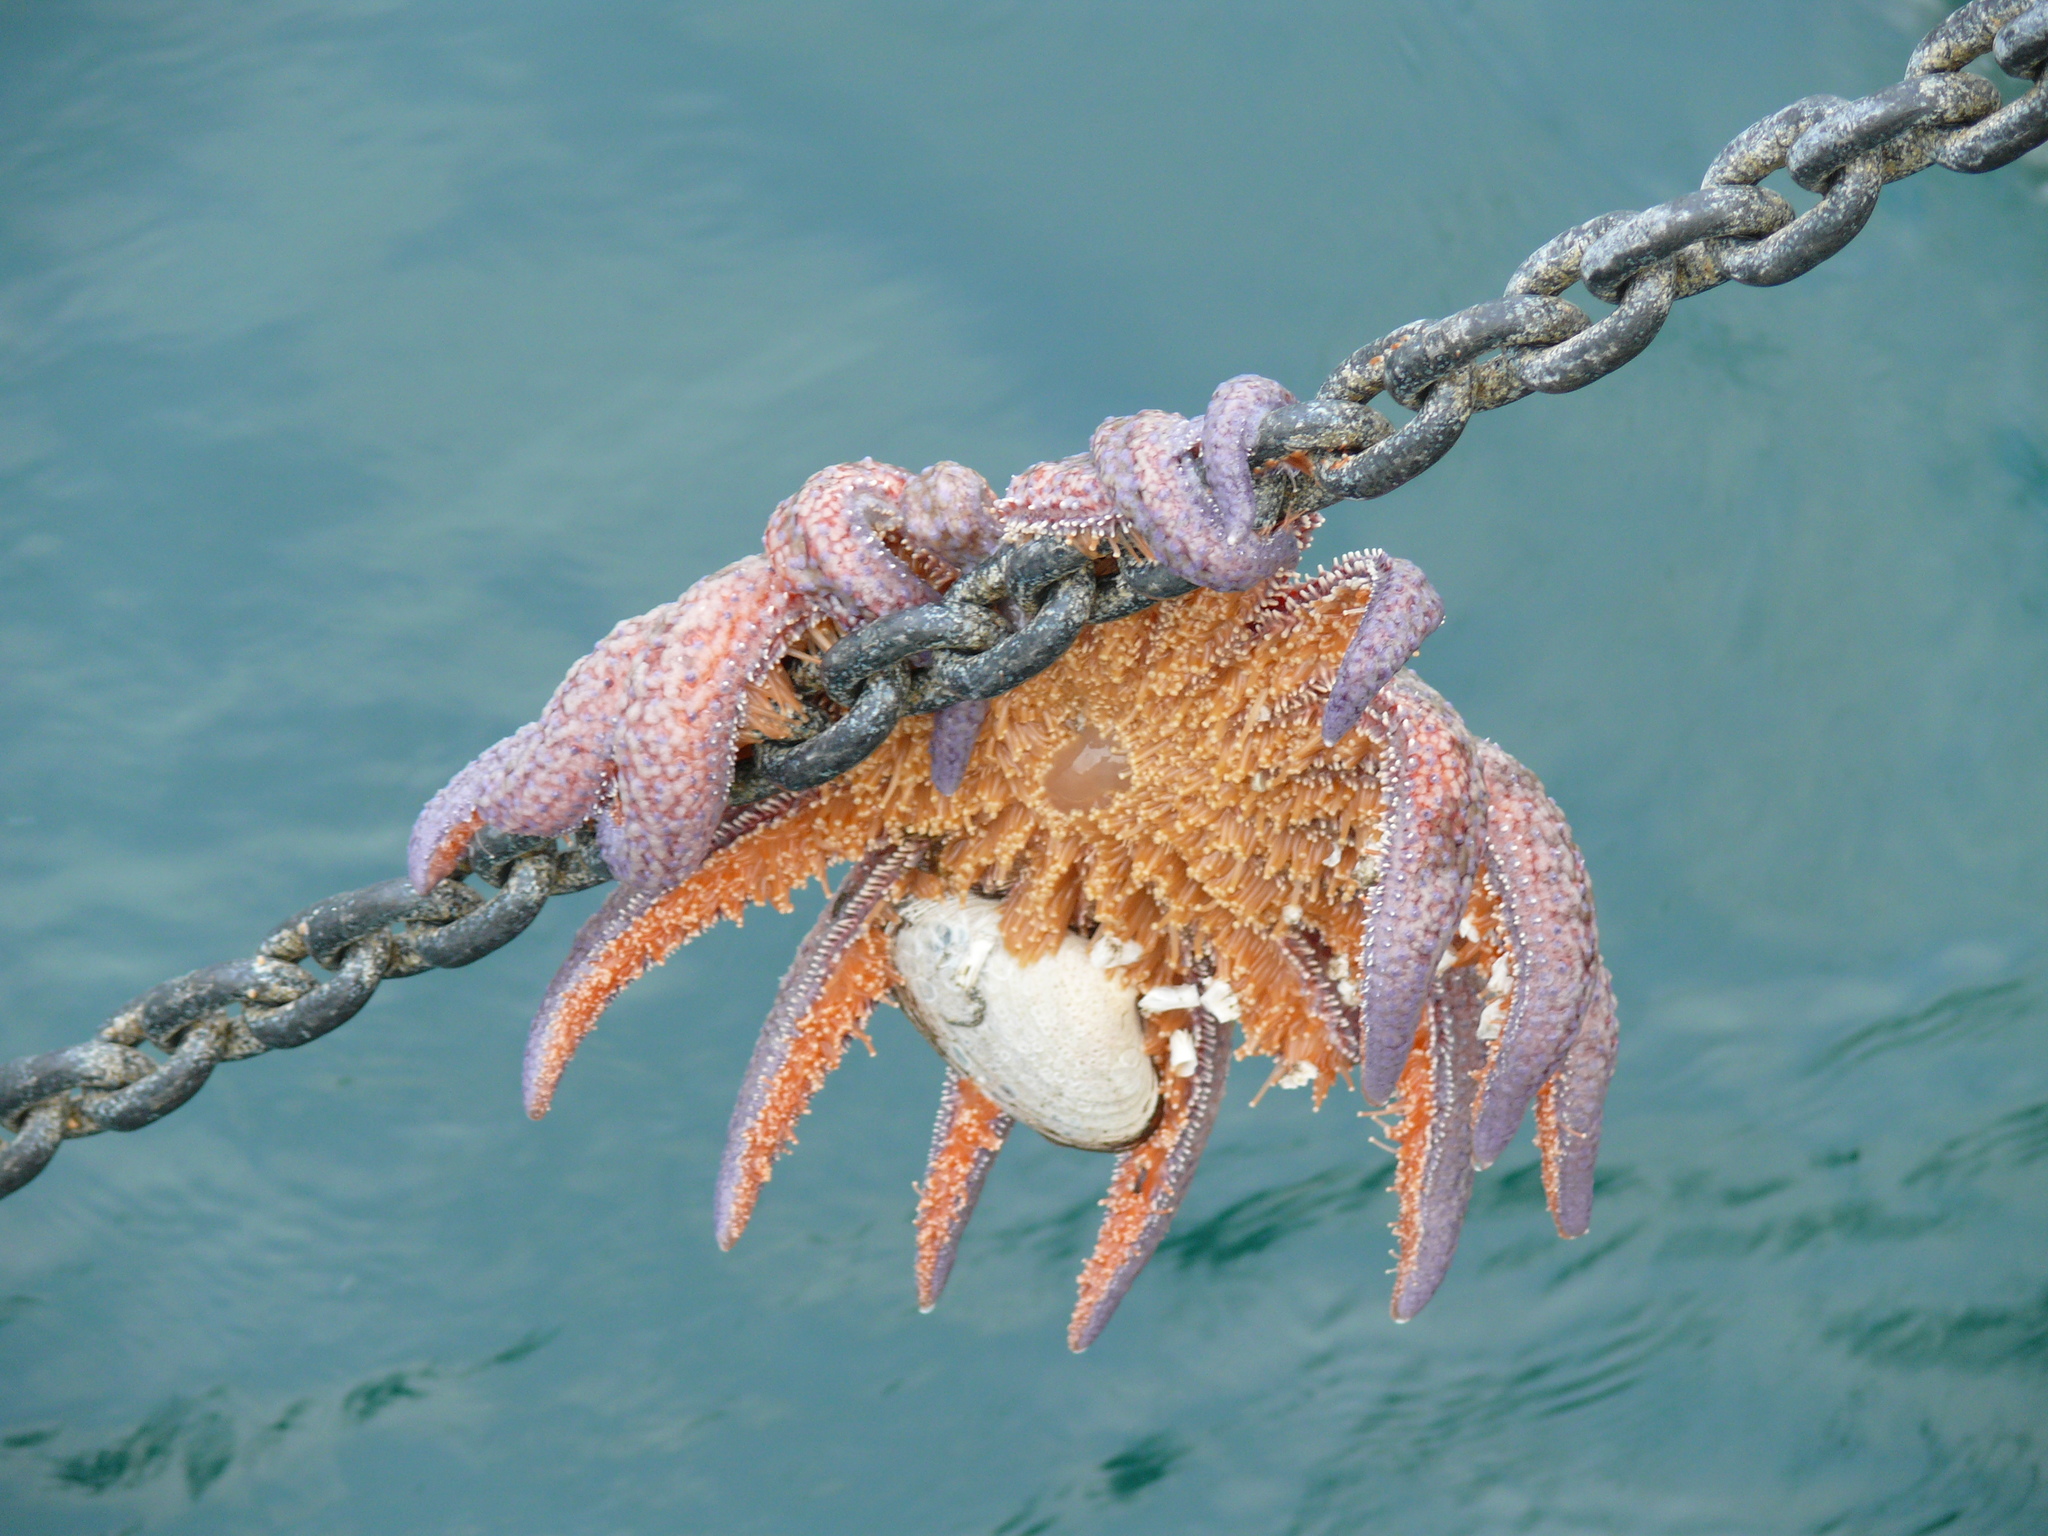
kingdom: Animalia
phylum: Echinodermata
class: Asteroidea
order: Forcipulatida
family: Asteriidae
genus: Pycnopodia
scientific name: Pycnopodia helianthoides
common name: Rag mop
